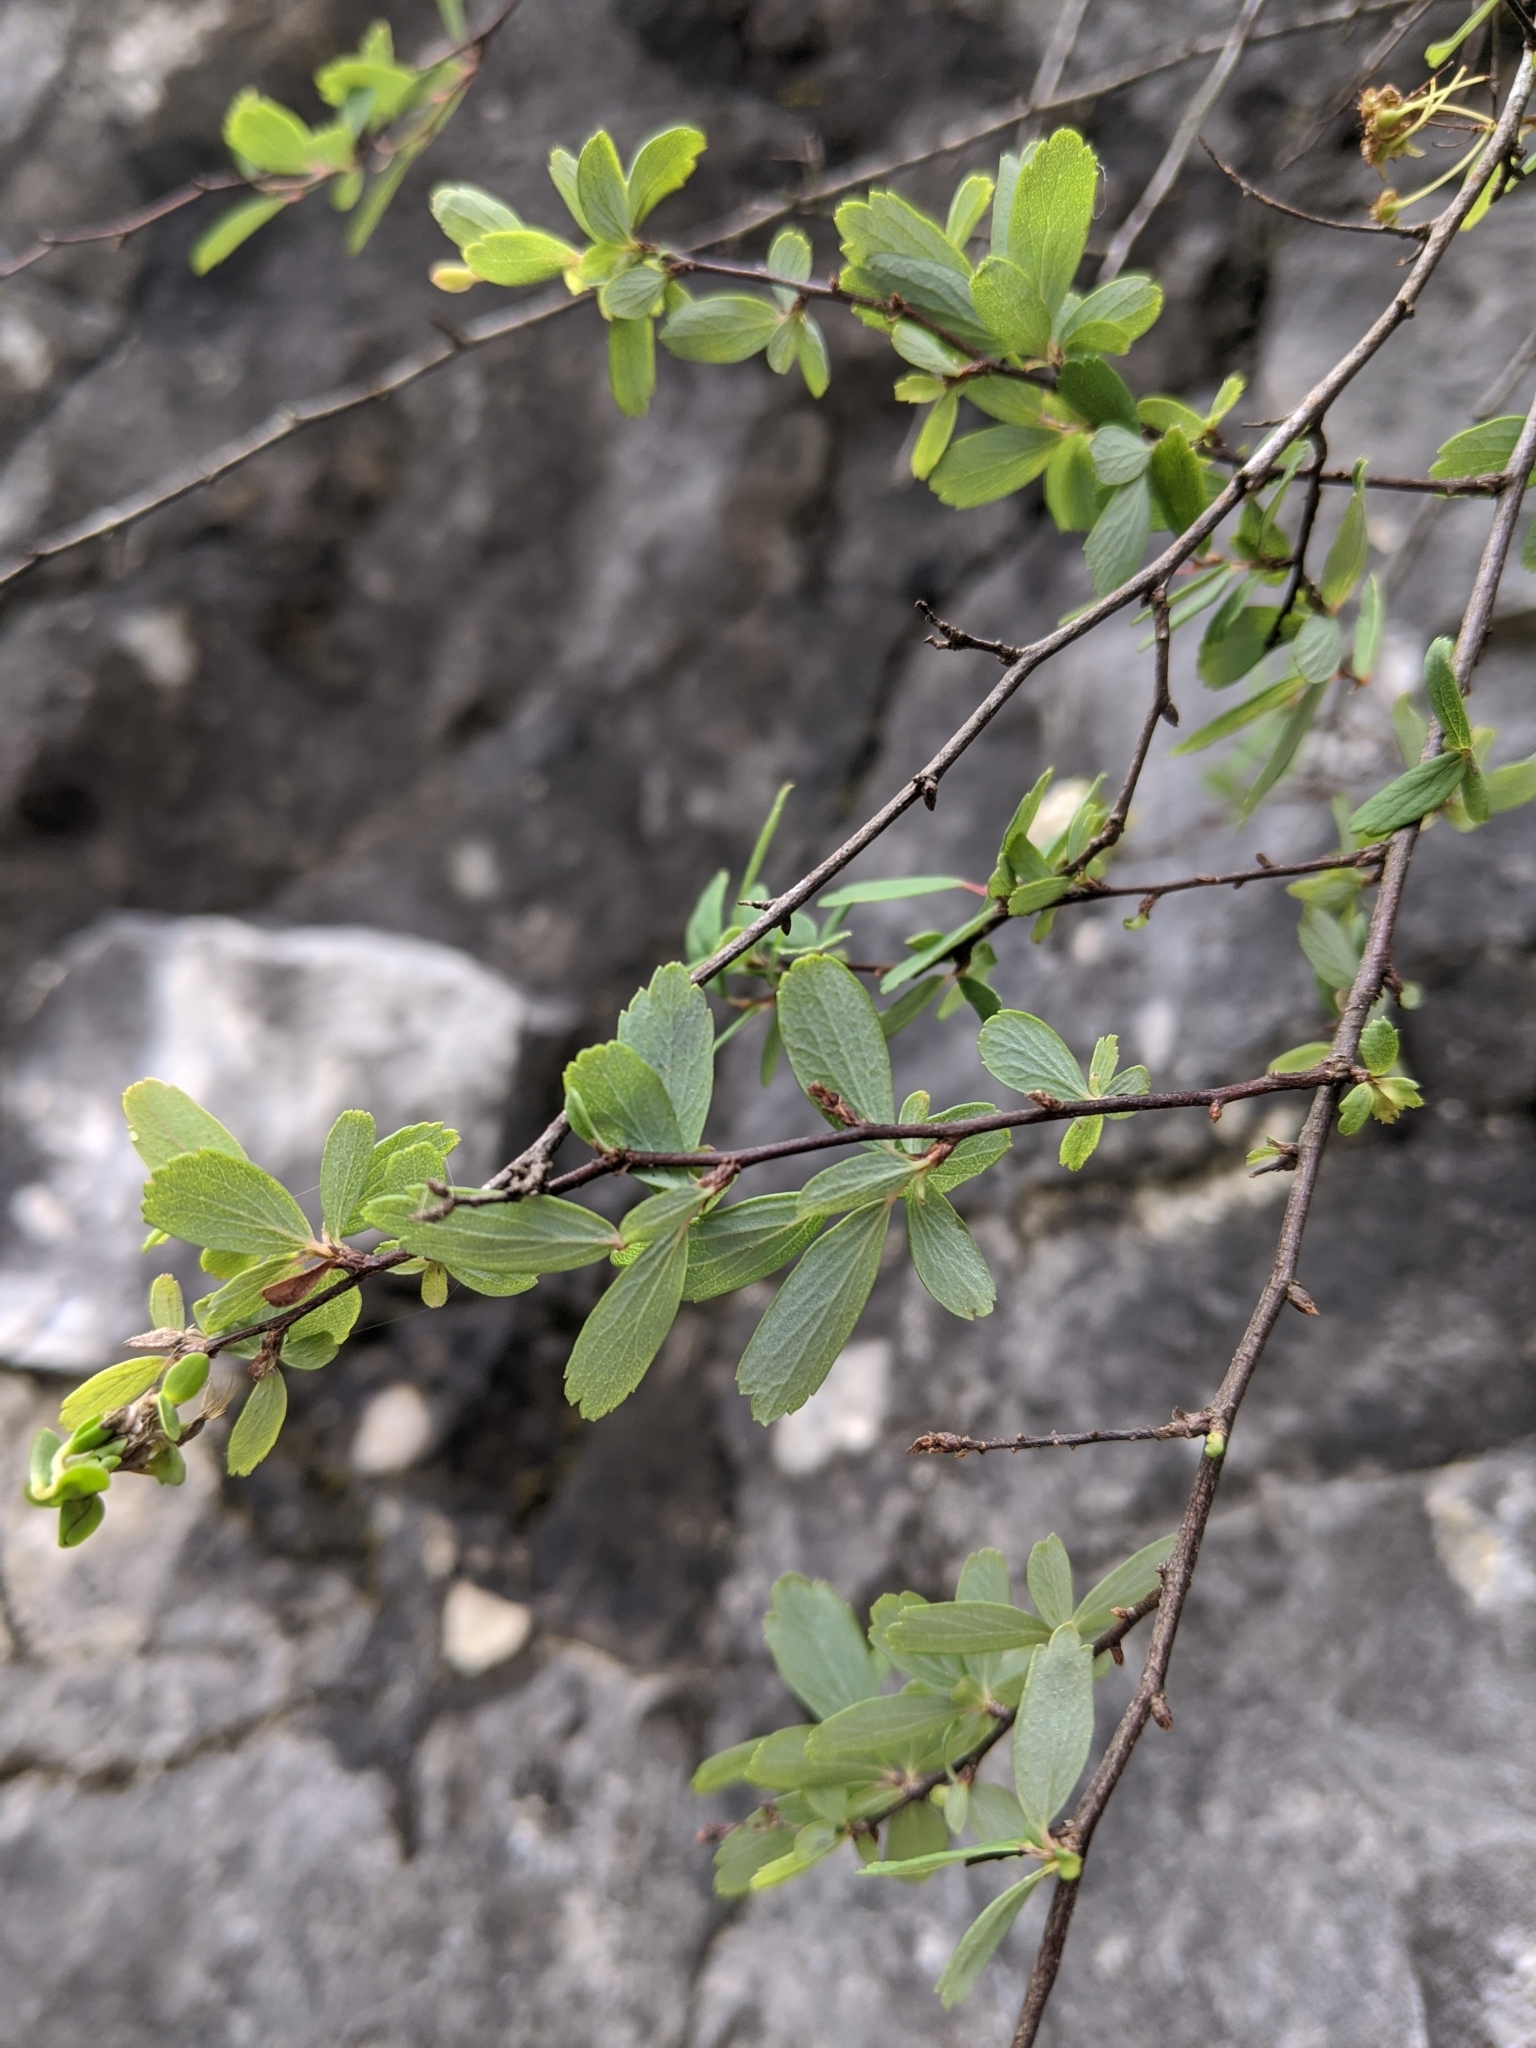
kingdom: Plantae
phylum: Tracheophyta
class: Magnoliopsida
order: Rosales
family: Rosaceae
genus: Spiraea
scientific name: Spiraea tarokoensis
